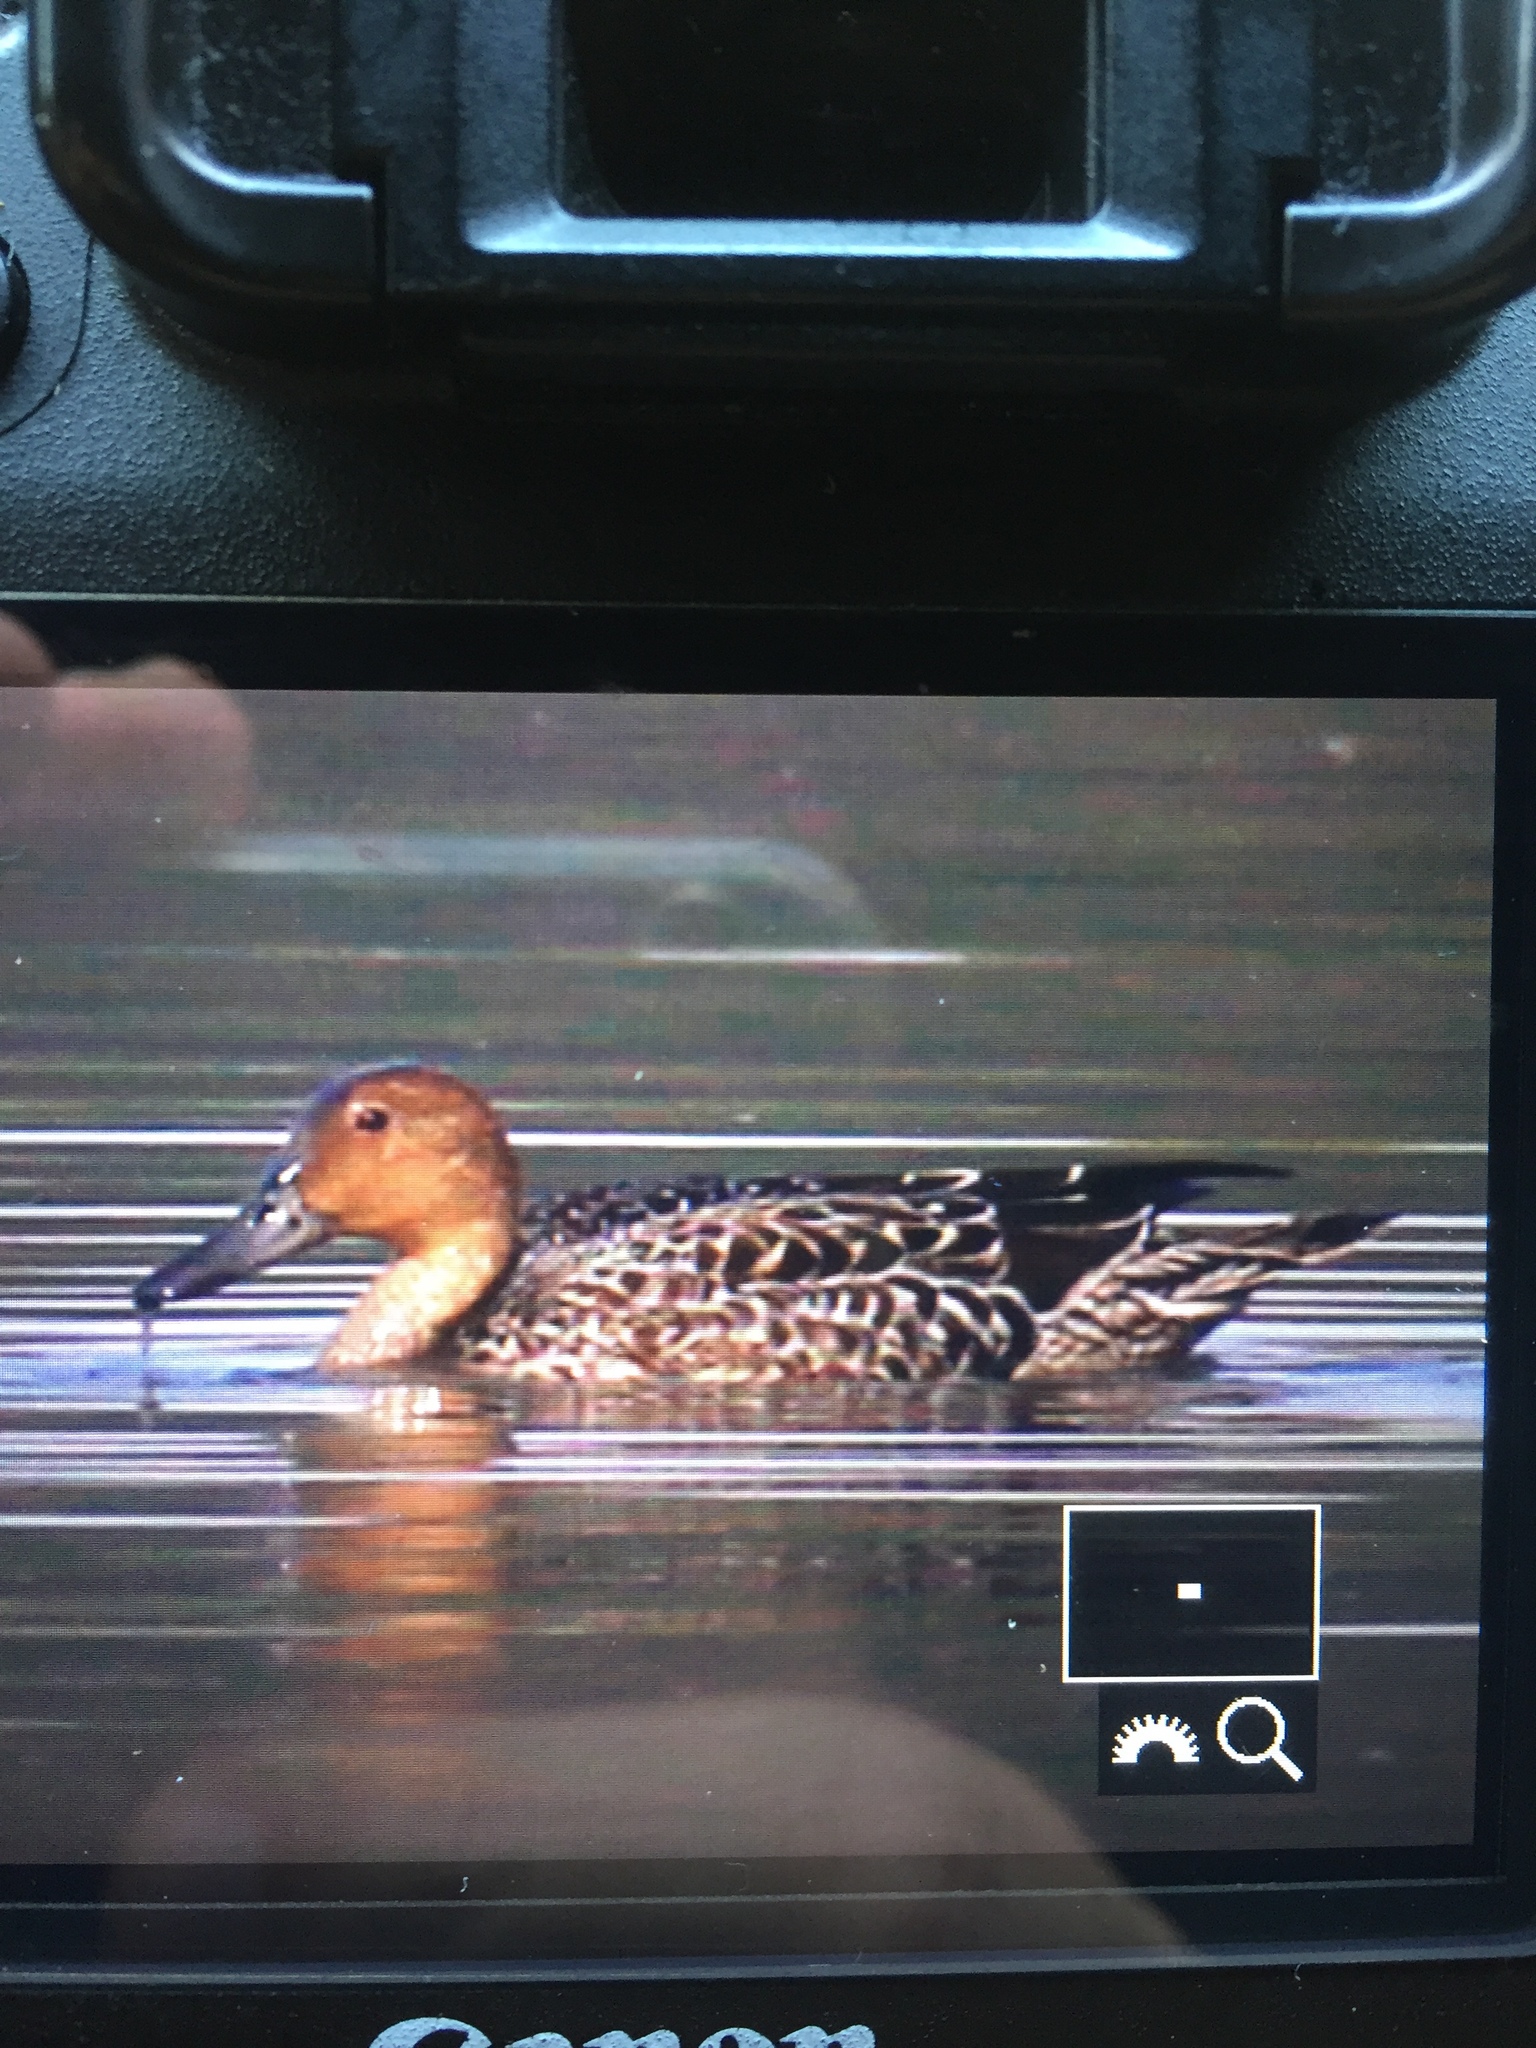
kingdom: Animalia
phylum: Chordata
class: Aves
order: Anseriformes
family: Anatidae
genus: Anas
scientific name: Anas acuta
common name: Northern pintail
